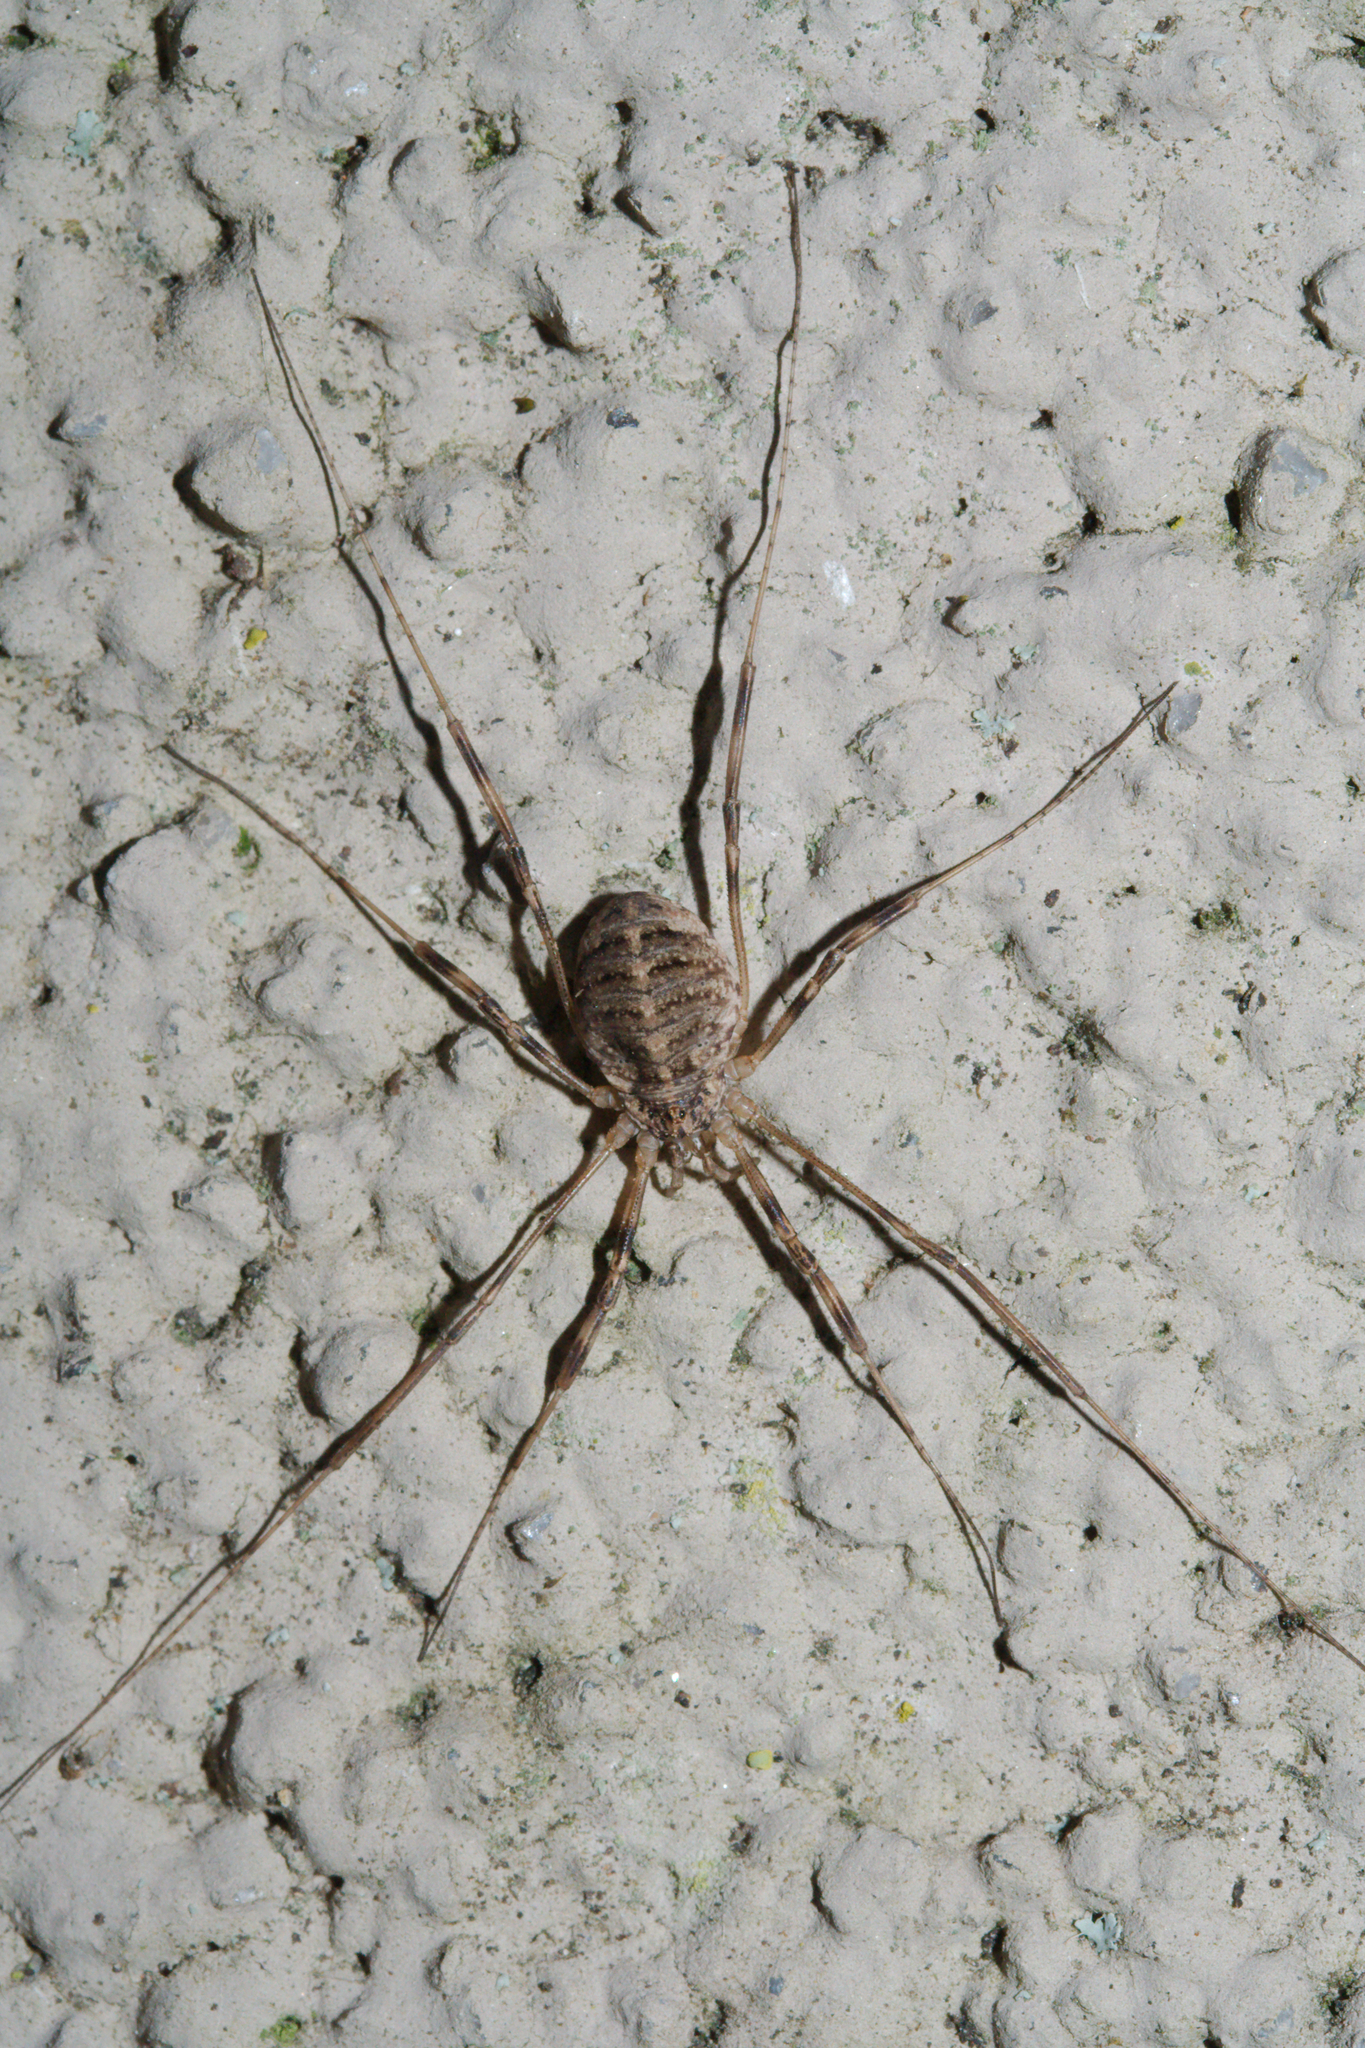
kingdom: Animalia
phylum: Arthropoda
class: Arachnida
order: Opiliones
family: Phalangiidae
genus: Opilio
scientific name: Opilio saxatilis
